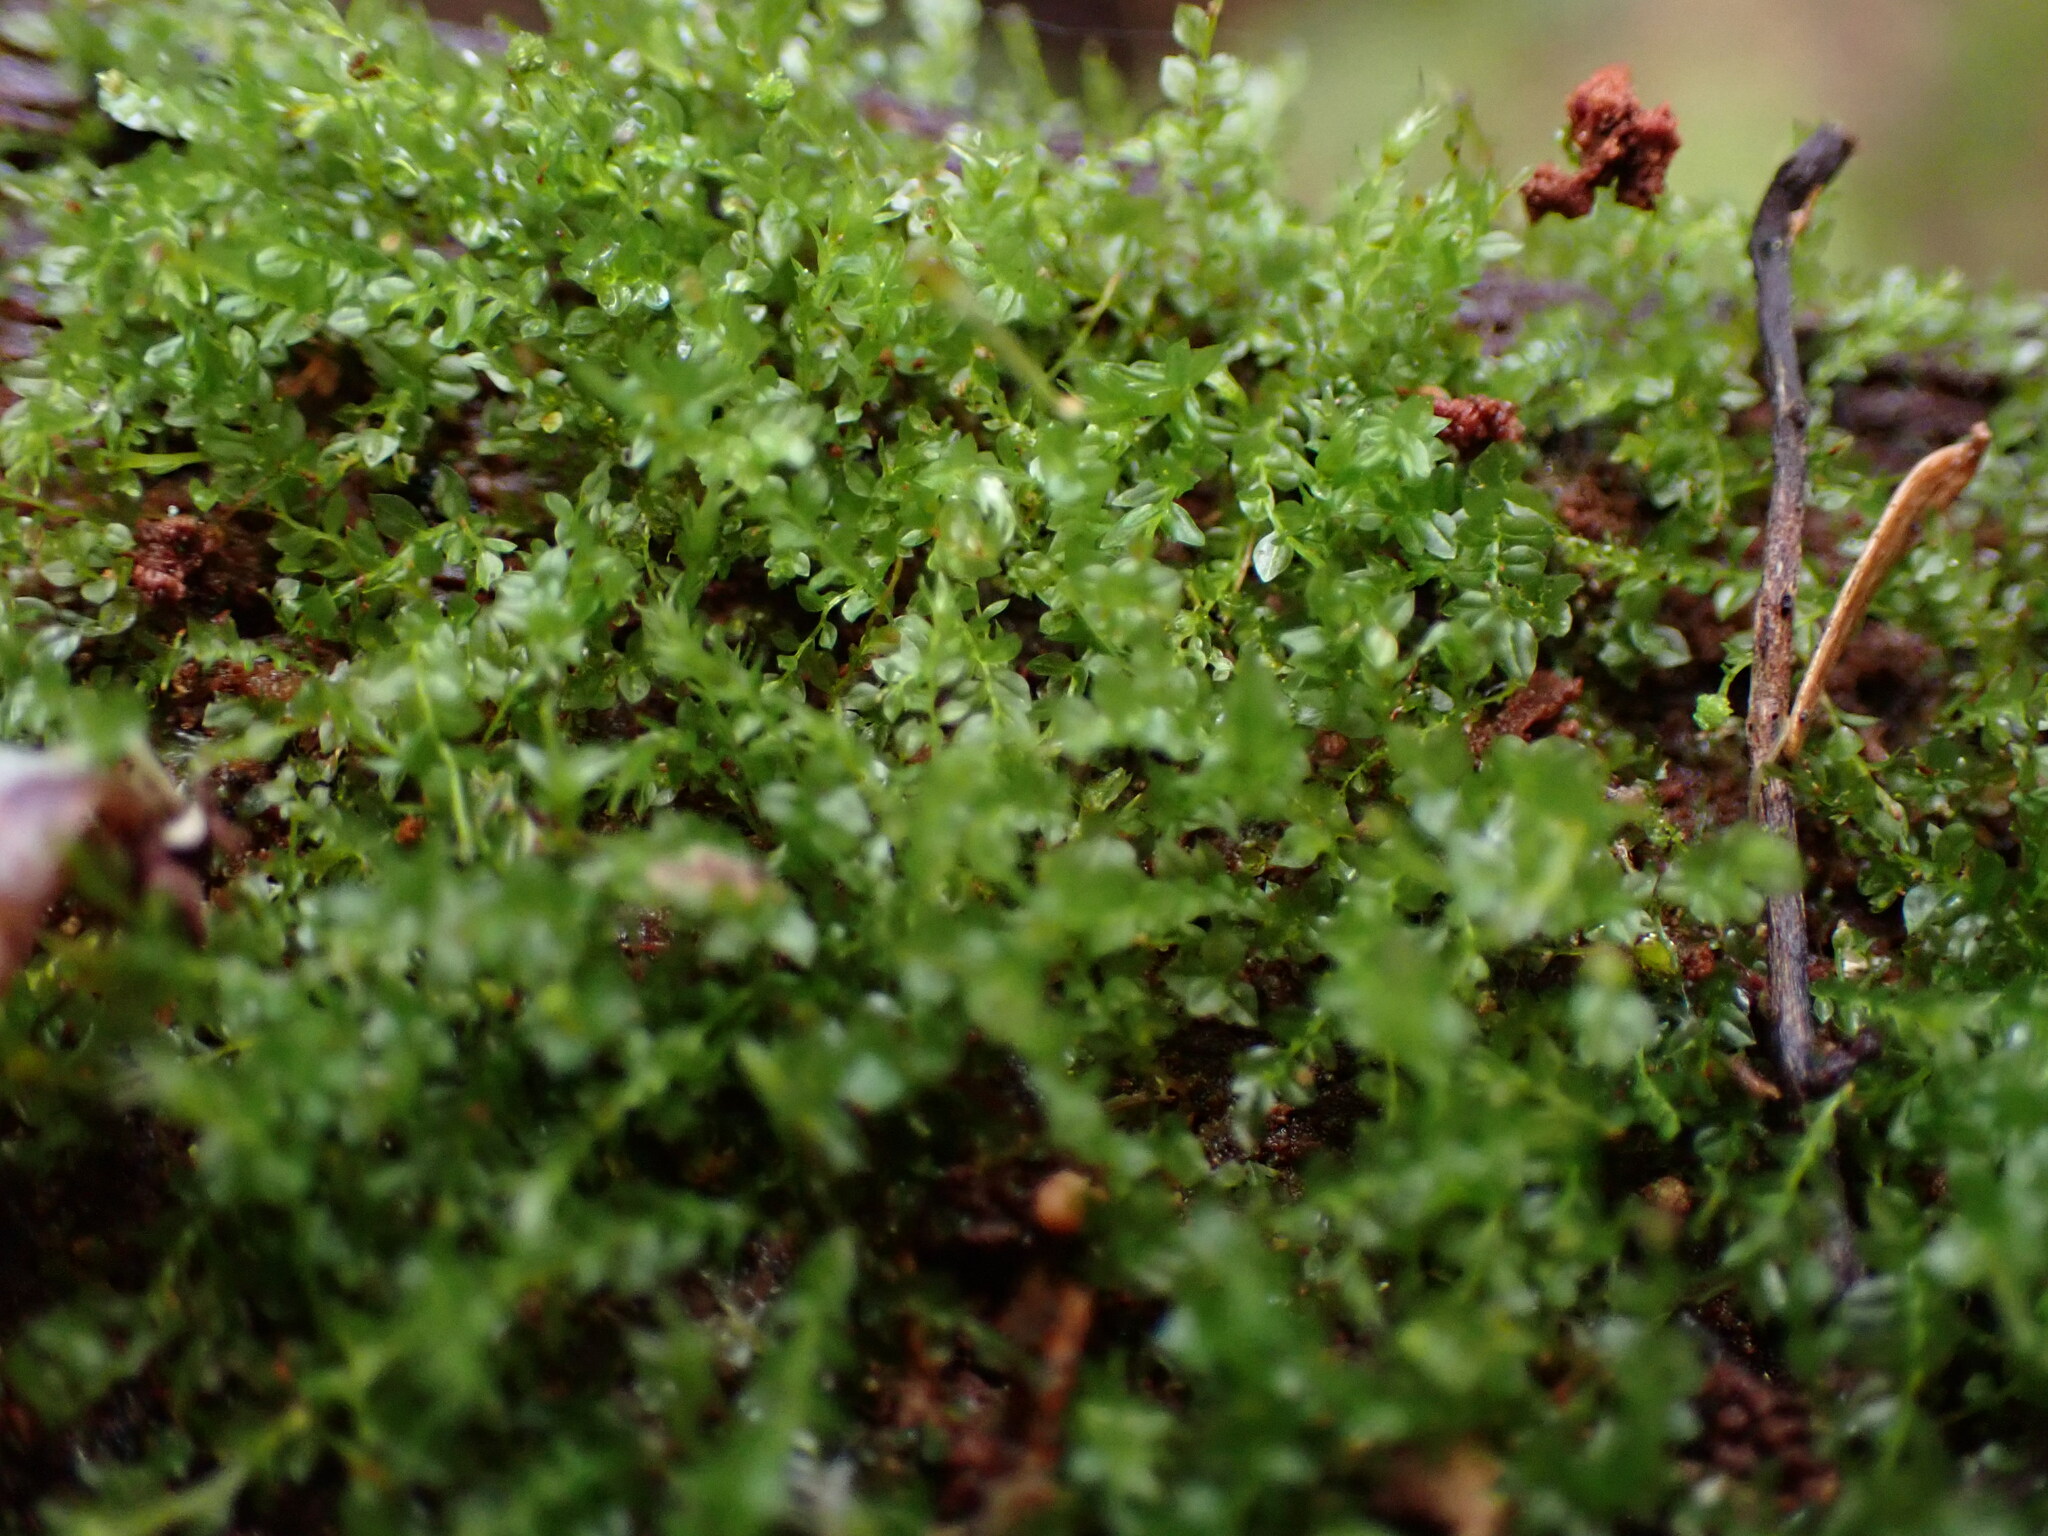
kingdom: Plantae
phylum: Bryophyta
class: Polytrichopsida
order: Tetraphidales
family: Tetraphidaceae
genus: Tetraphis
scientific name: Tetraphis pellucida
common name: Common four-toothed moss
